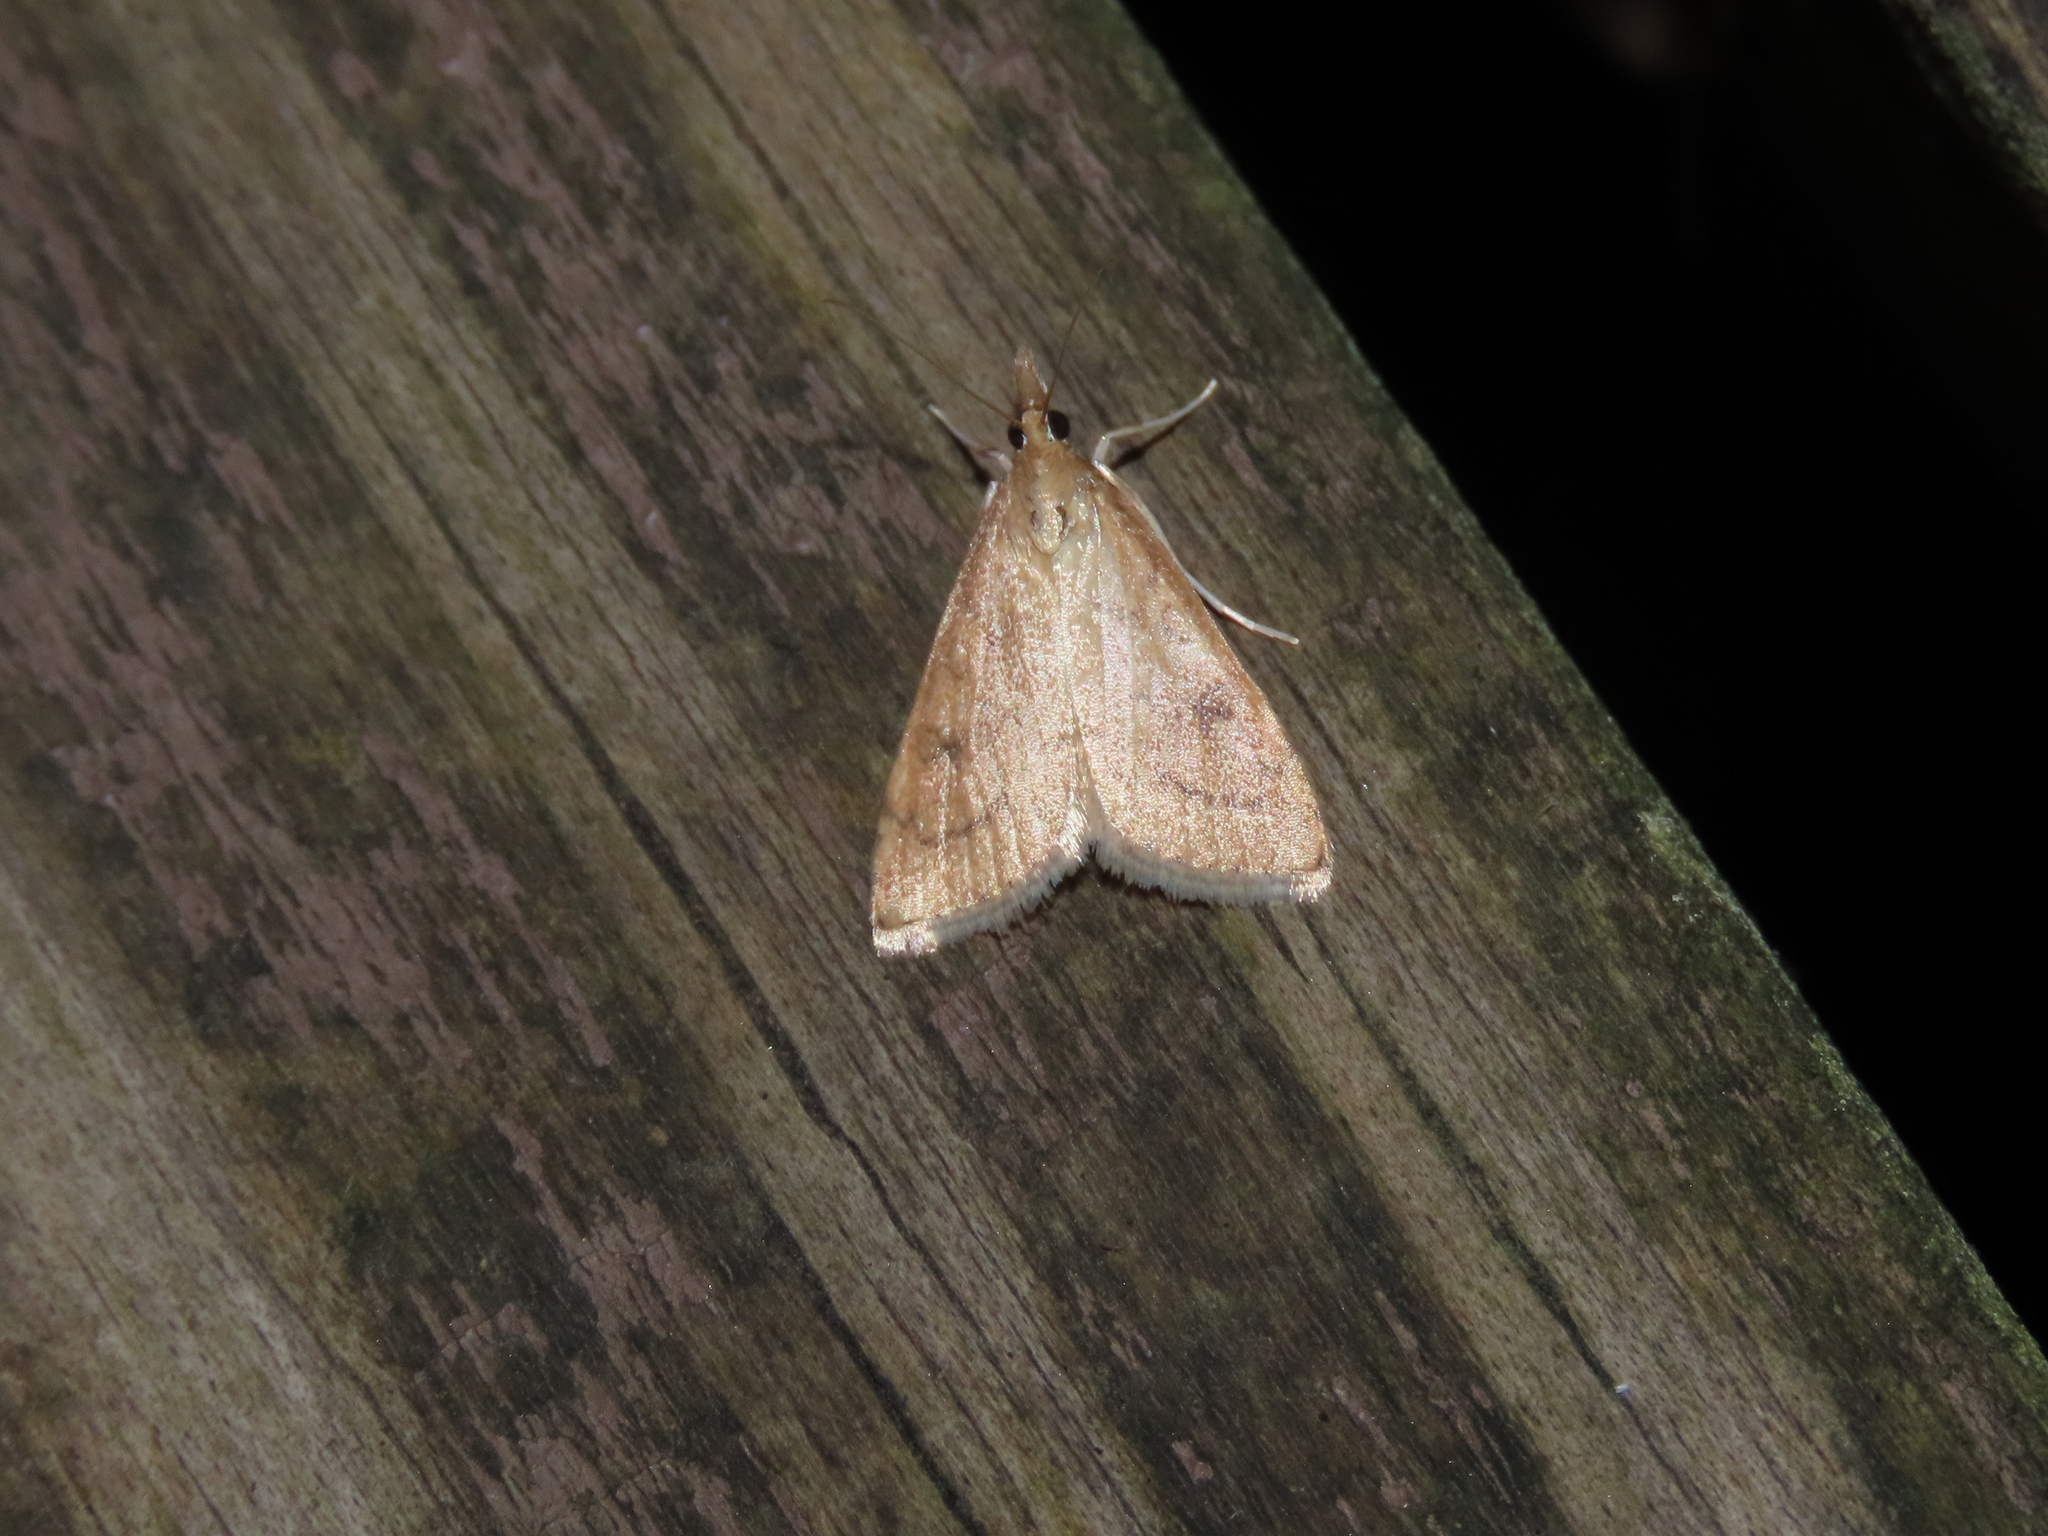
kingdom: Animalia
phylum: Arthropoda
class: Insecta
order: Lepidoptera
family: Crambidae
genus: Udea
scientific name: Udea rubigalis
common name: Celery leaftier moth
